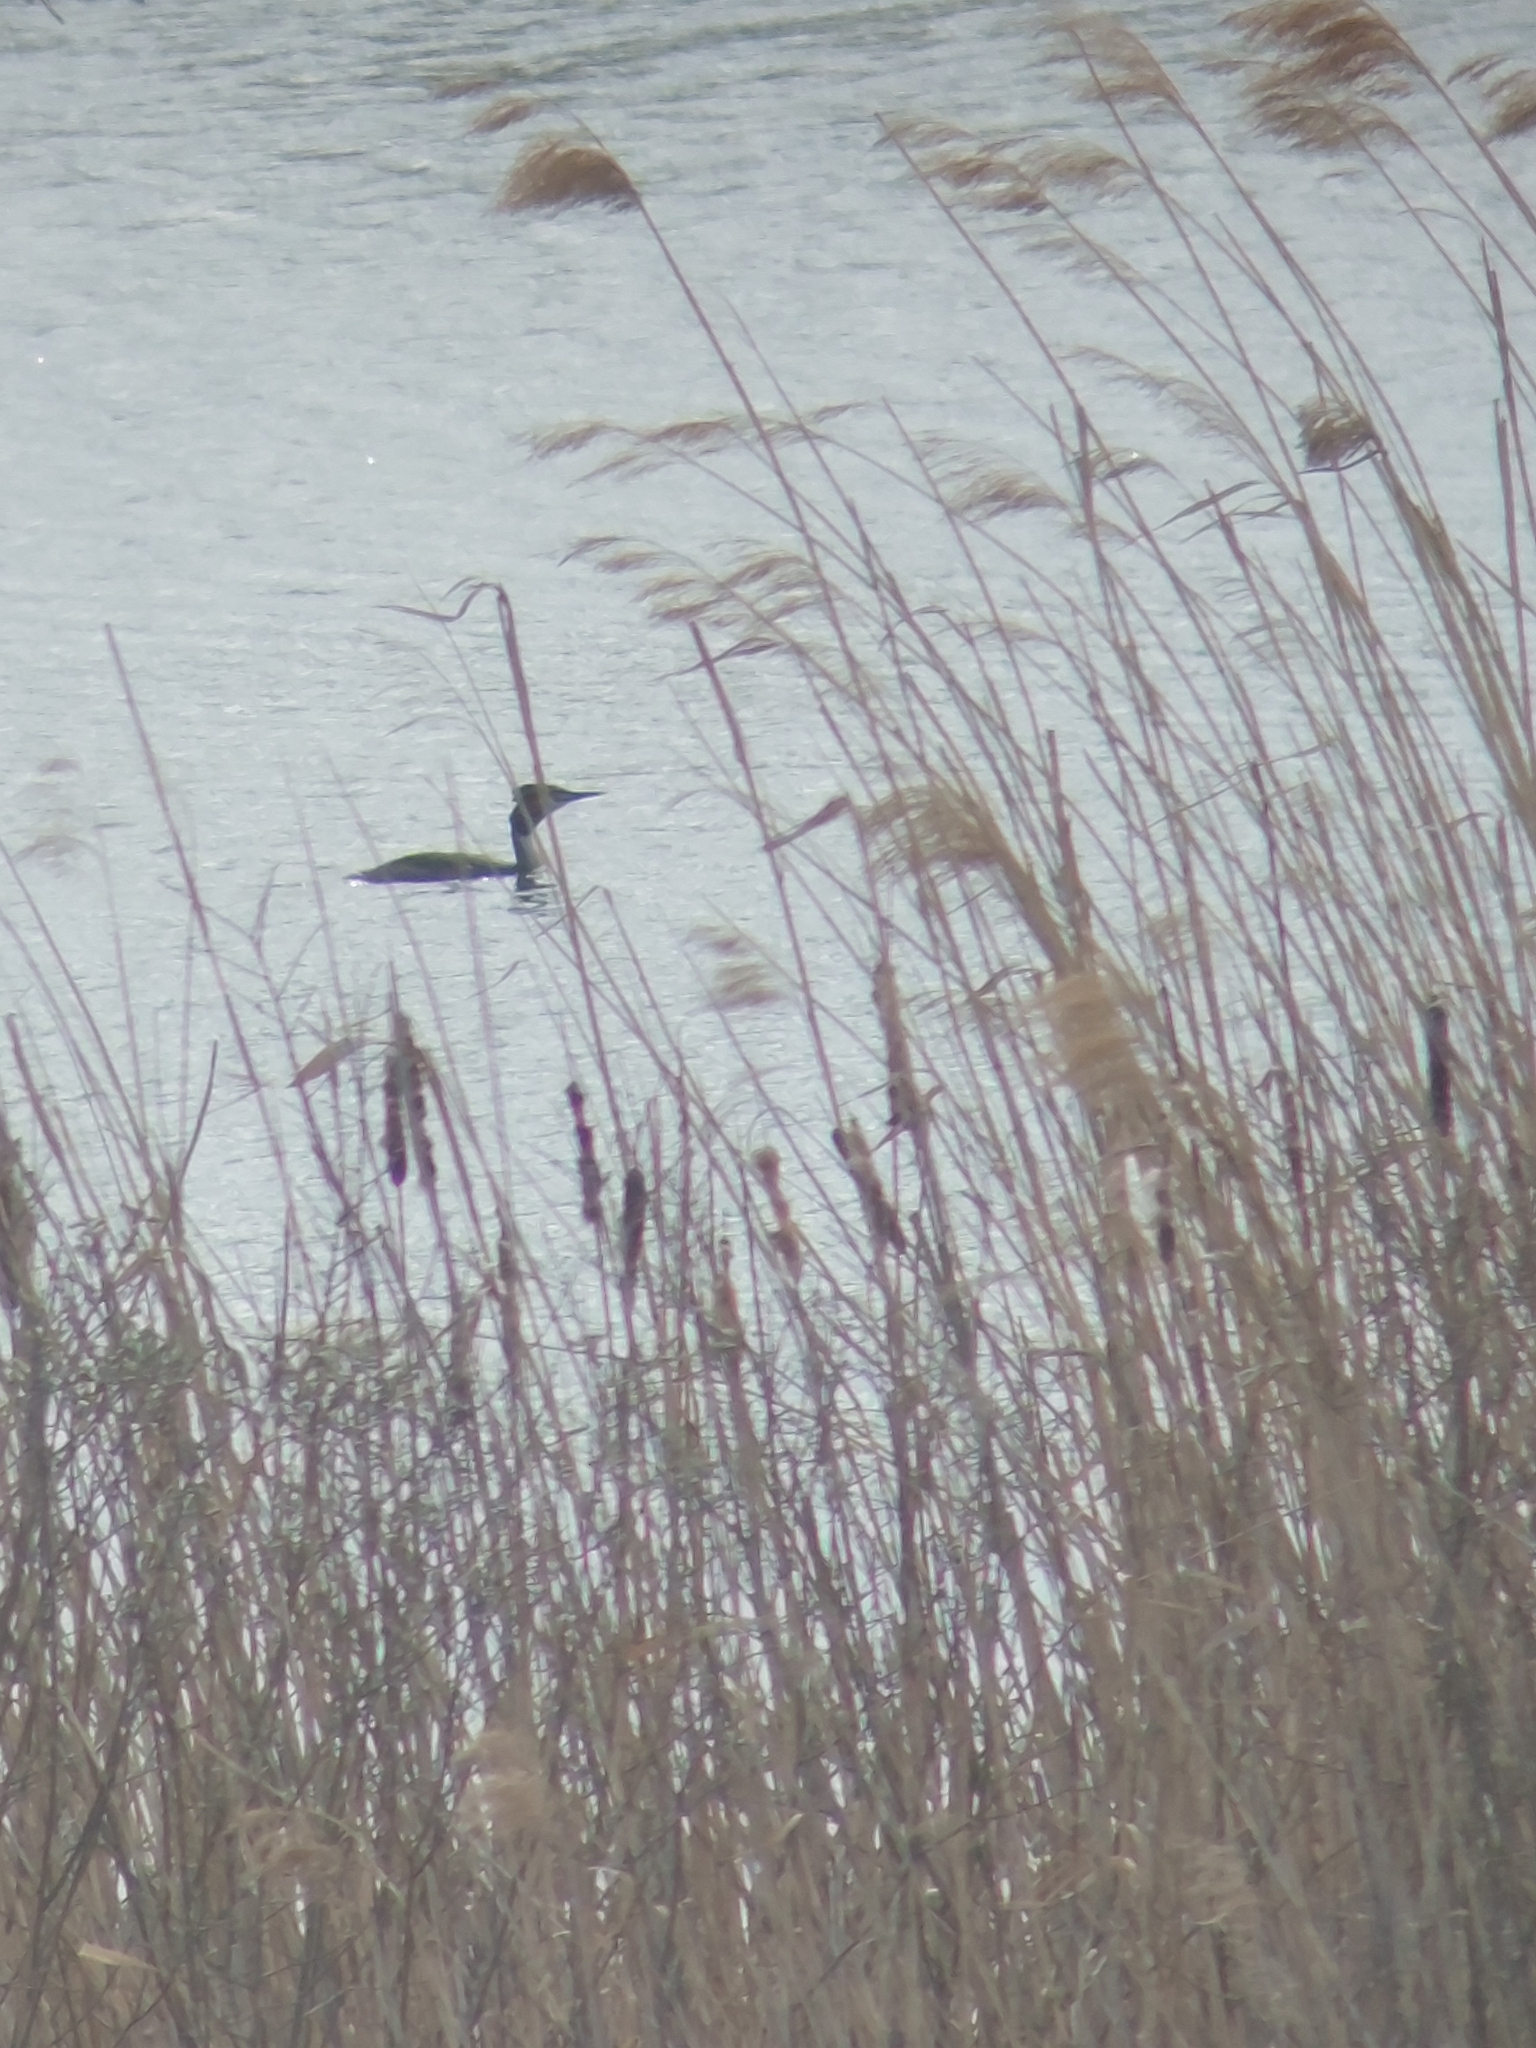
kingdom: Animalia
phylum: Chordata
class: Aves
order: Podicipediformes
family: Podicipedidae
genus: Podiceps
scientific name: Podiceps cristatus
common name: Great crested grebe
